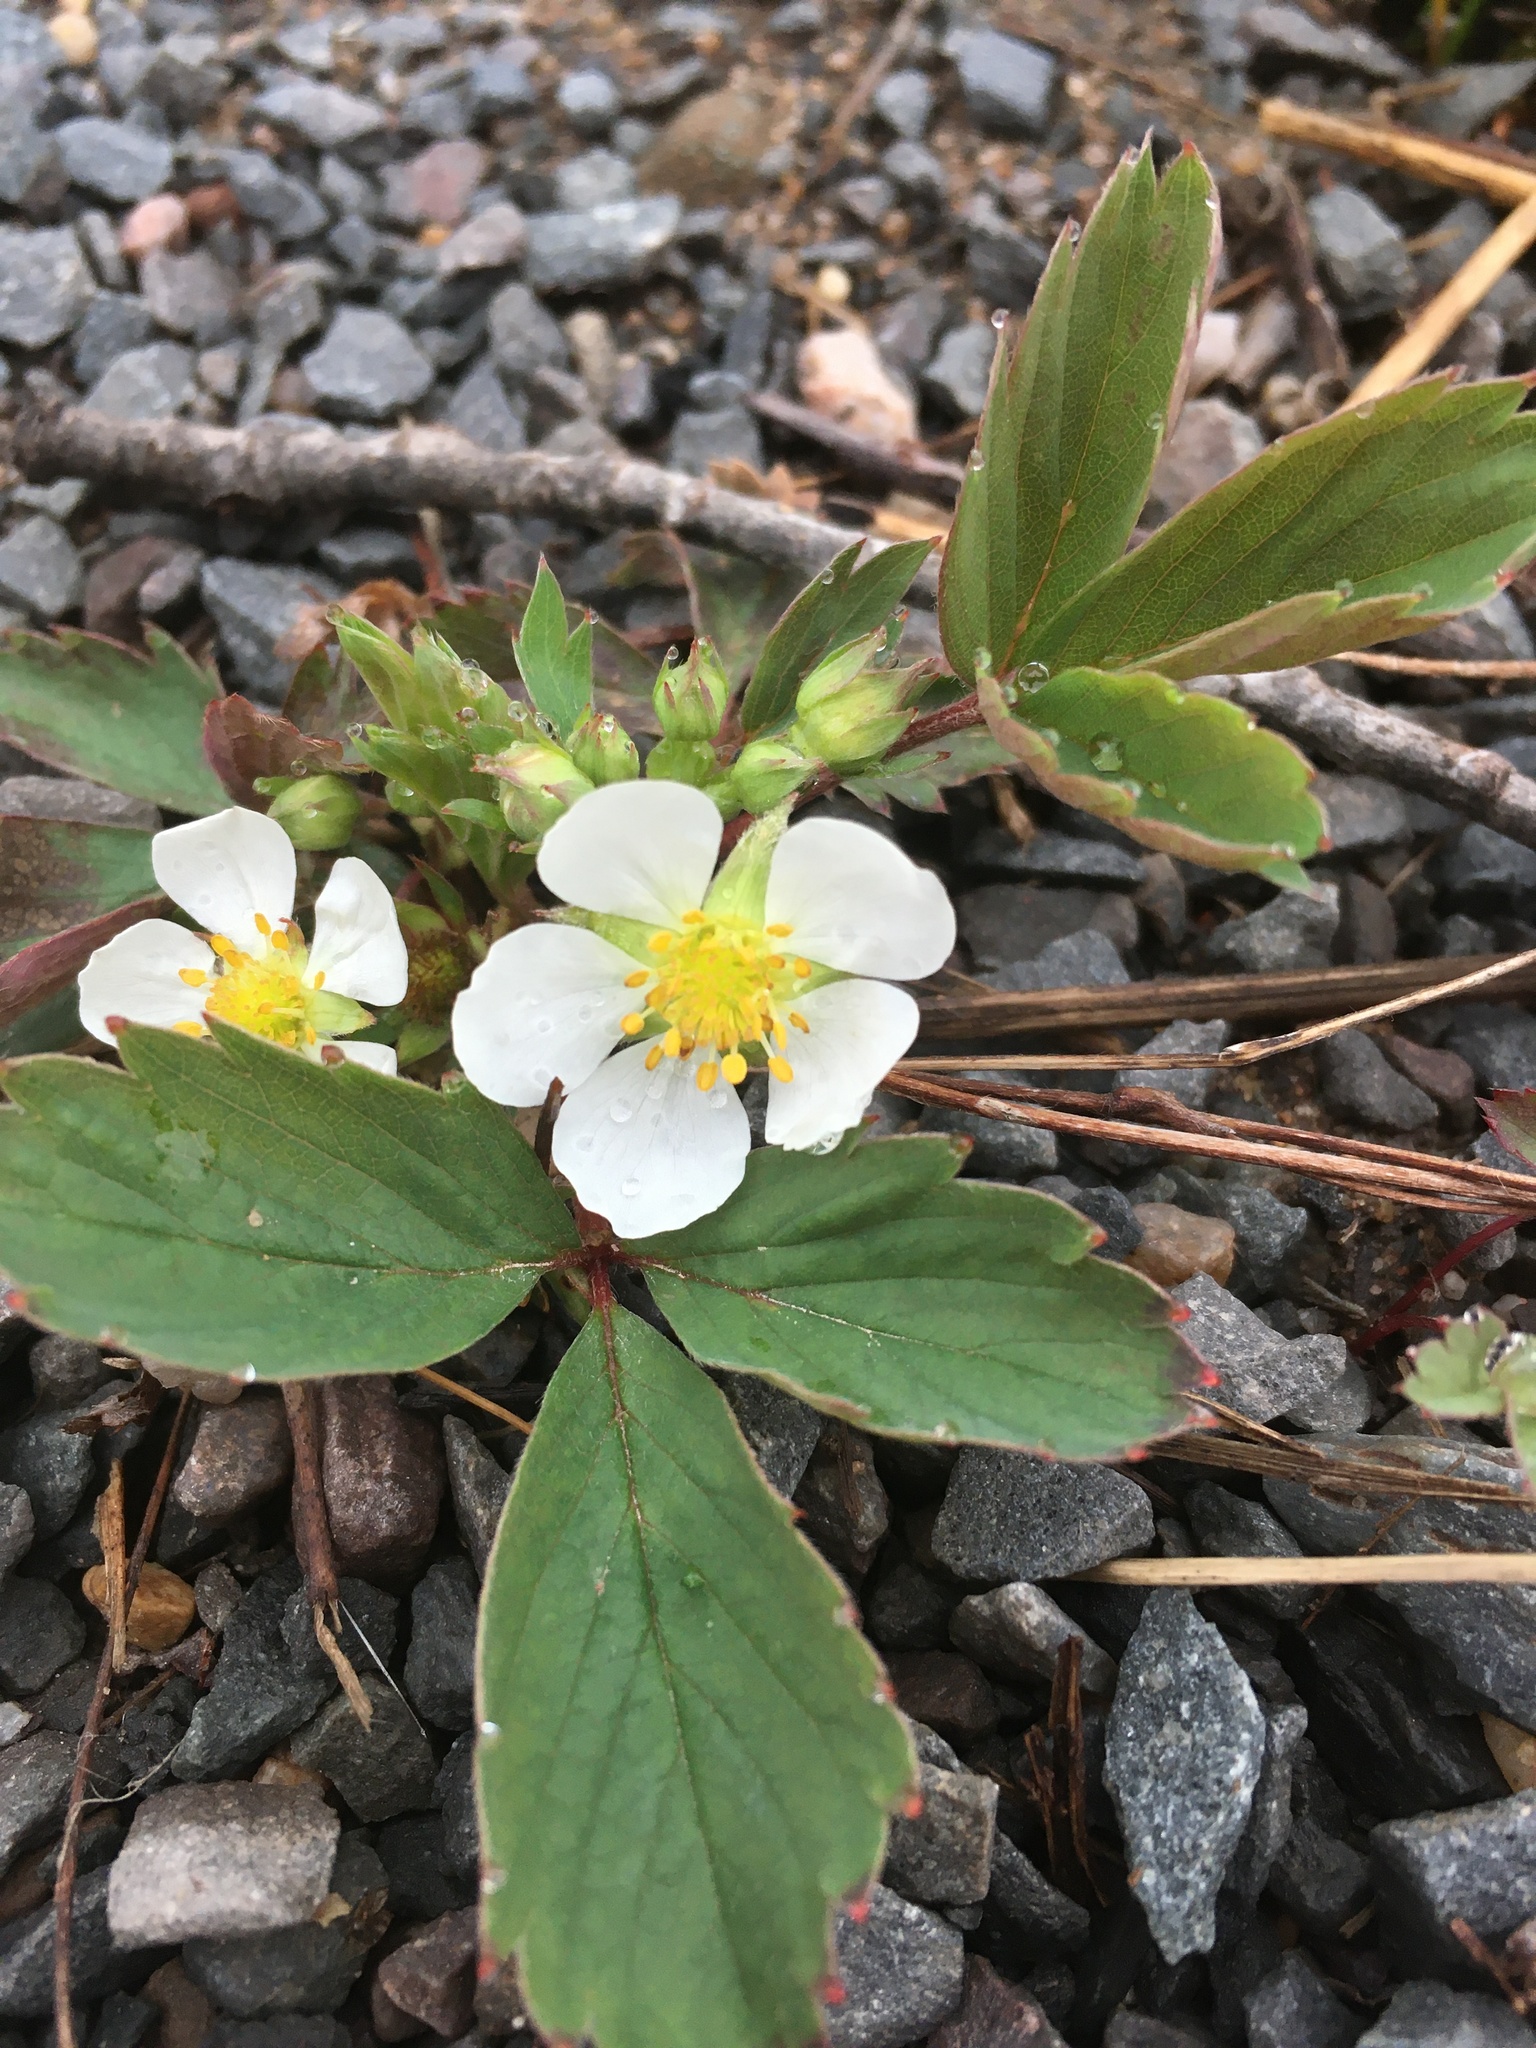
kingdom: Plantae
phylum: Tracheophyta
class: Magnoliopsida
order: Rosales
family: Rosaceae
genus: Fragaria
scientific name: Fragaria virginiana
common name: Thickleaved wild strawberry
